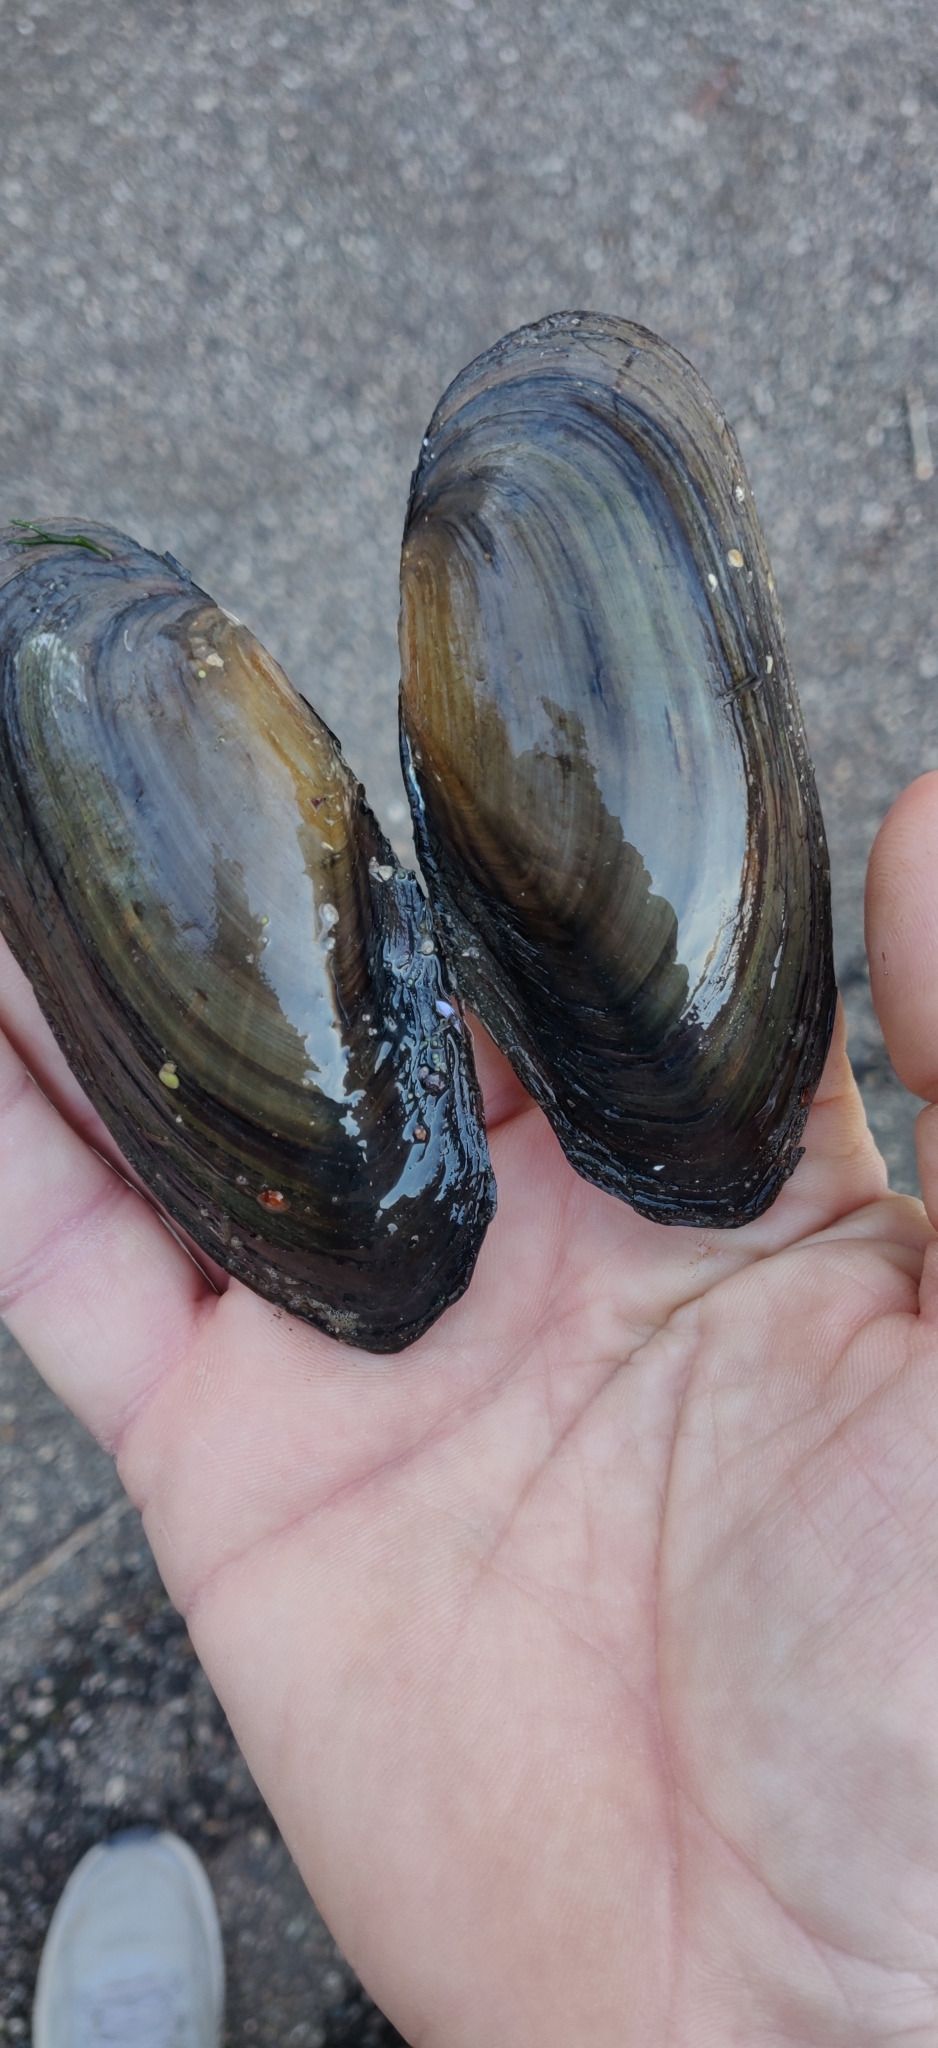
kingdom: Animalia
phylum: Mollusca
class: Bivalvia
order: Unionida
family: Unionidae
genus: Utterbackia
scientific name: Utterbackia imbecillis
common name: Paper pondshell
